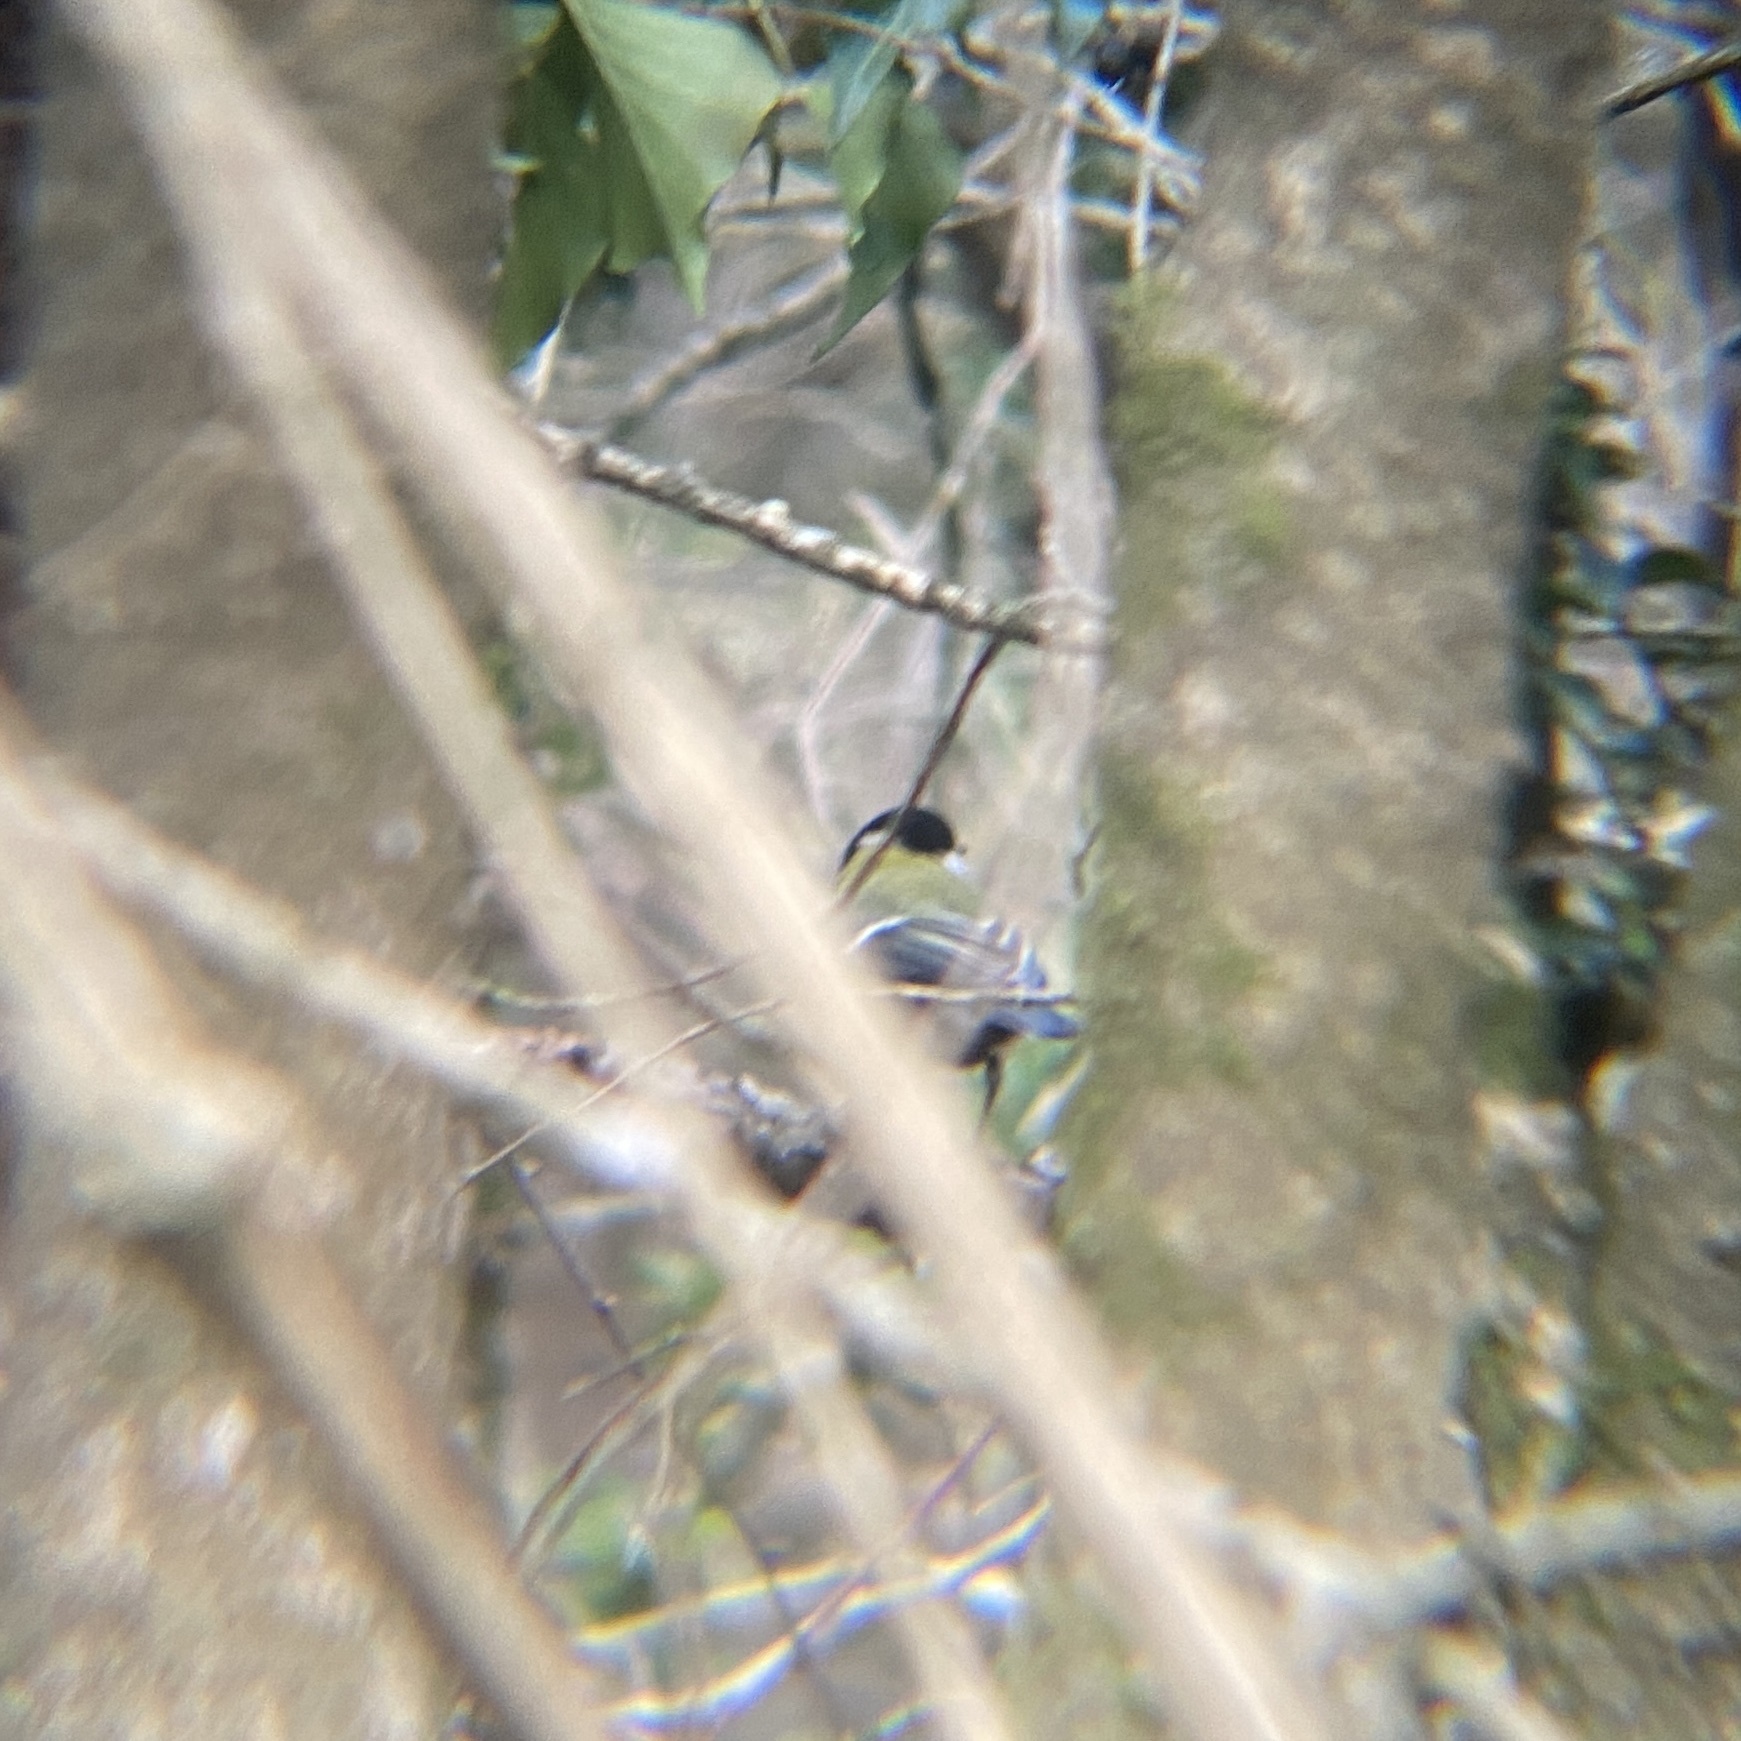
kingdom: Animalia
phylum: Chordata
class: Aves
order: Passeriformes
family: Paridae
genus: Parus
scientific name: Parus major
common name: Great tit
